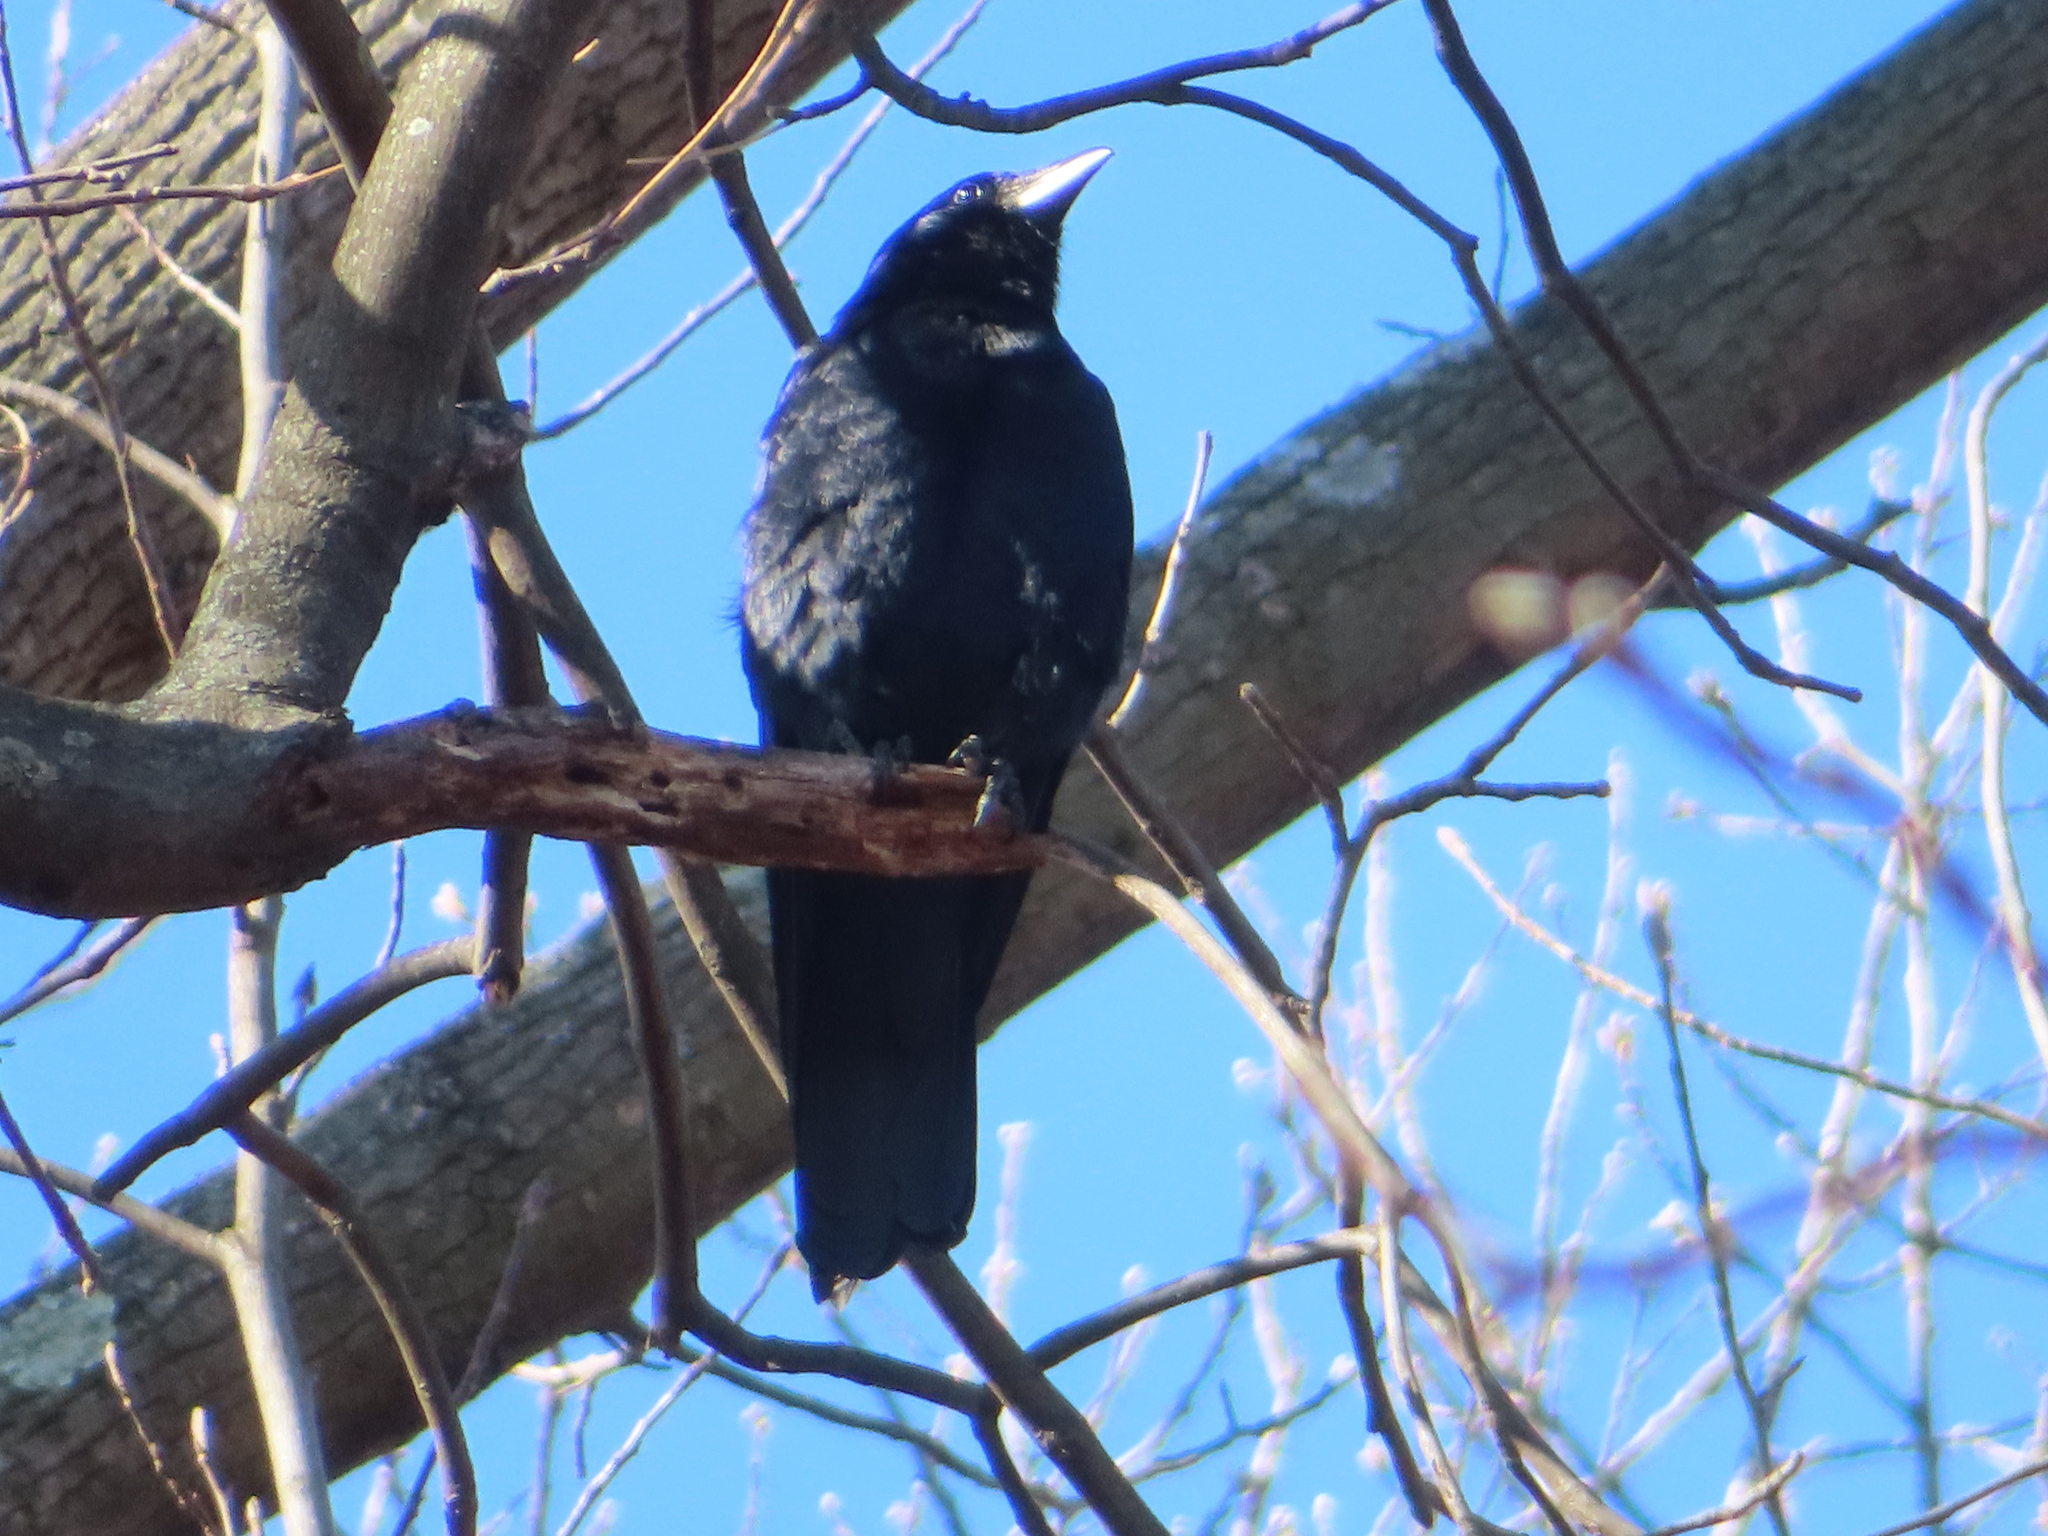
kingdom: Animalia
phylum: Chordata
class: Aves
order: Passeriformes
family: Corvidae
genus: Corvus
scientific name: Corvus ossifragus
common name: Fish crow
